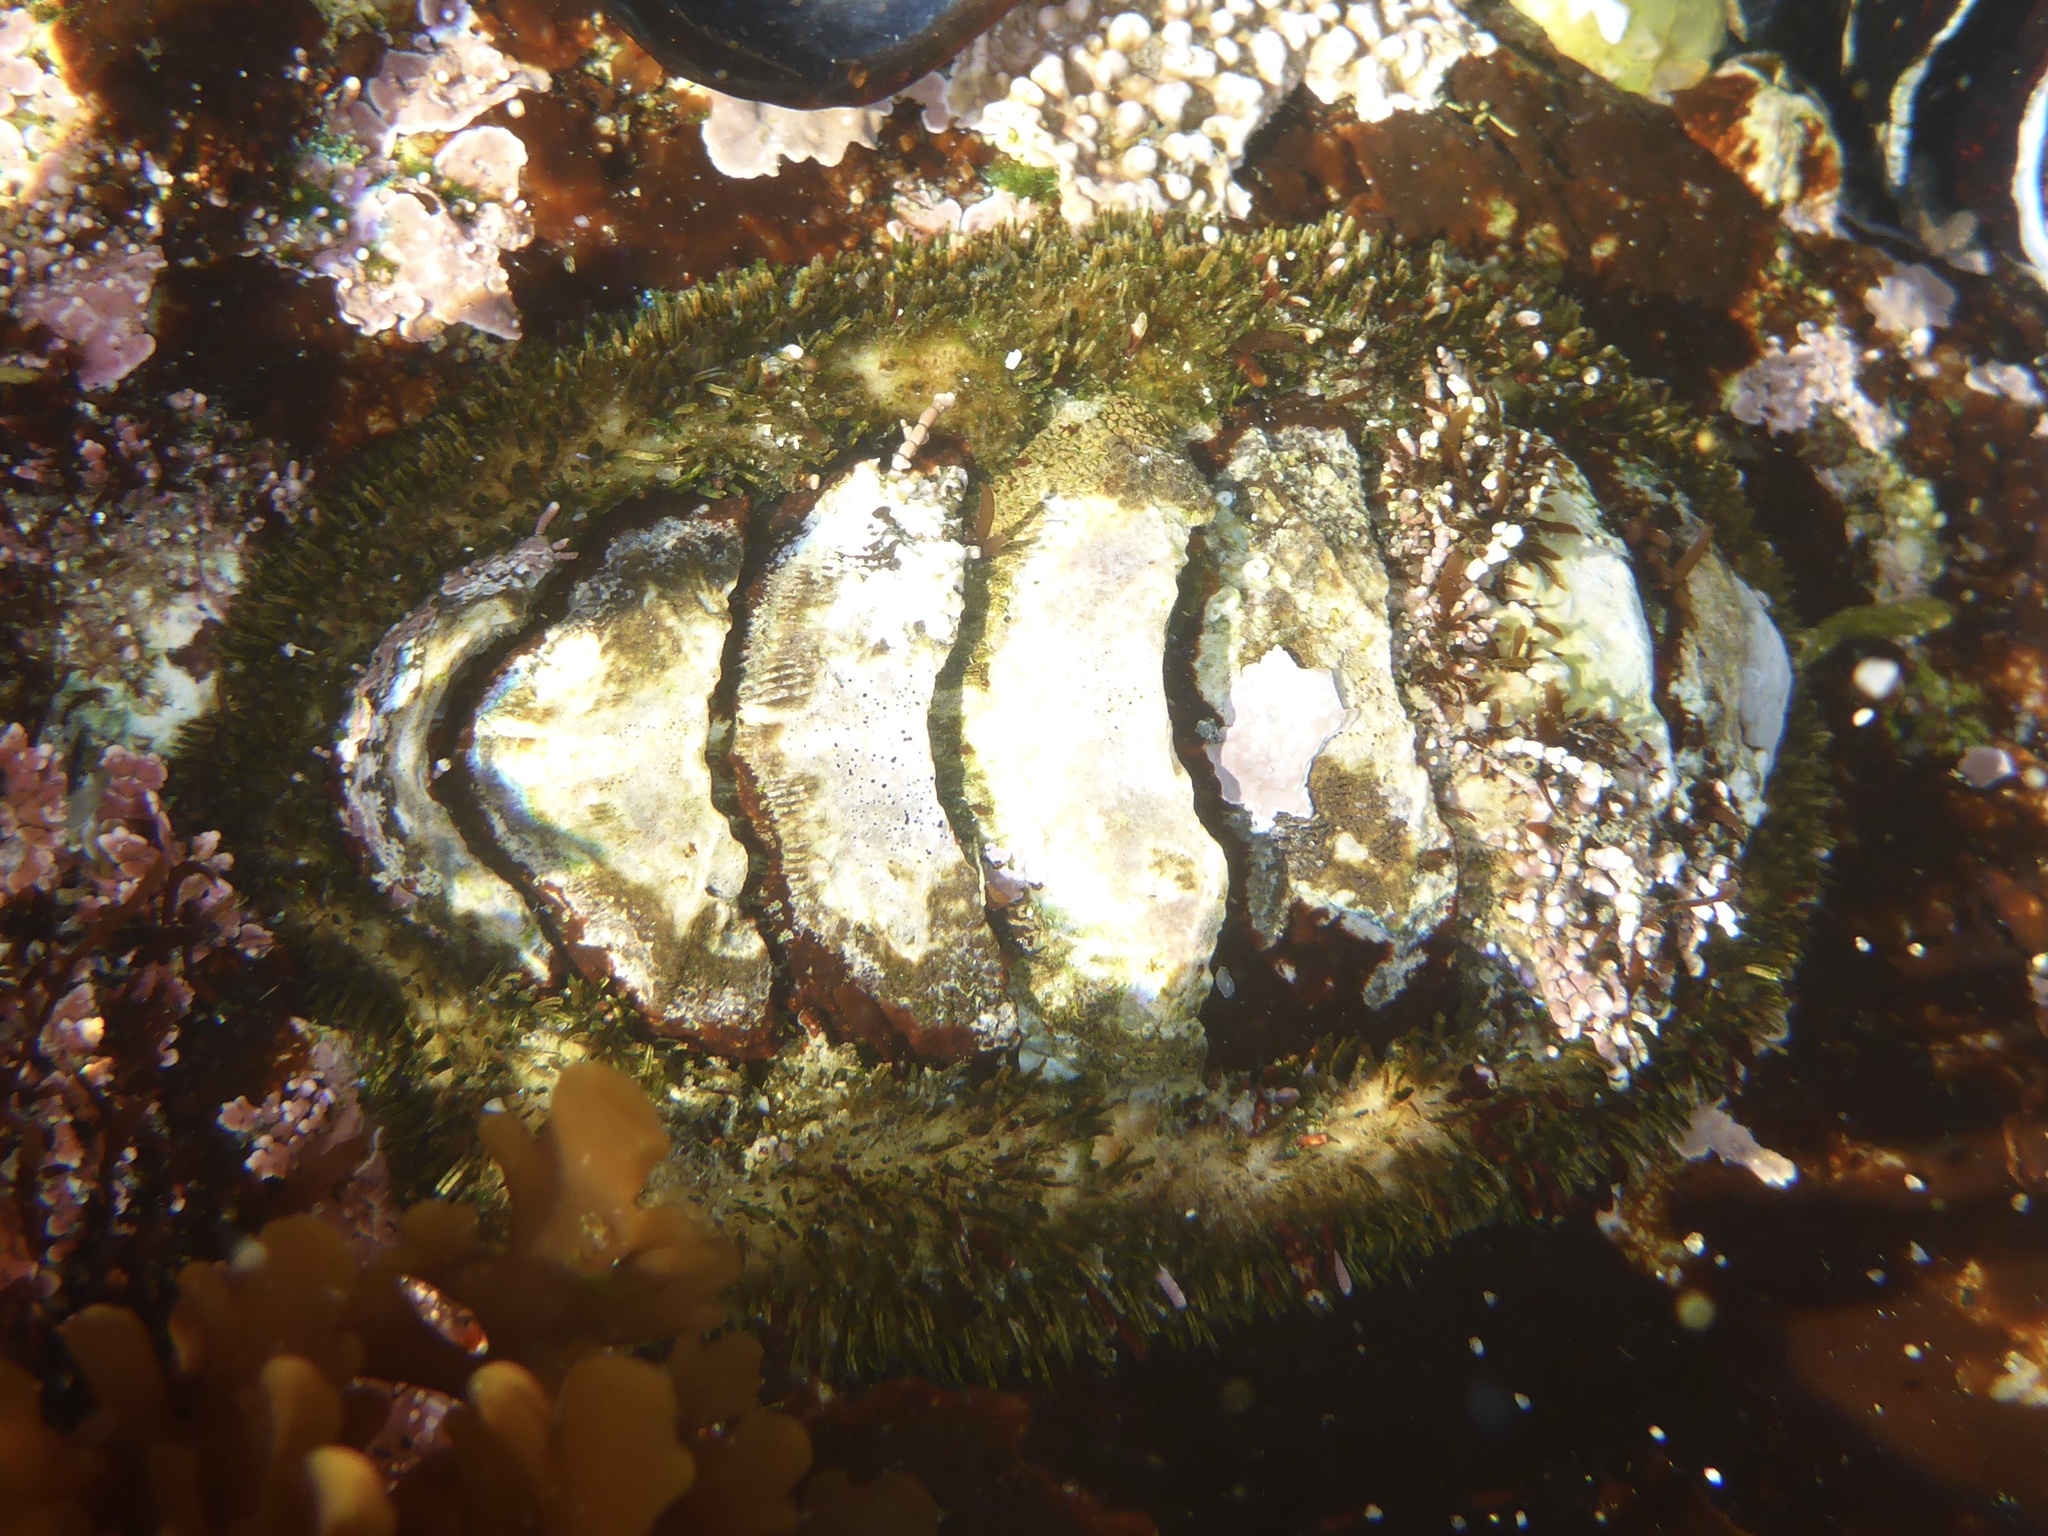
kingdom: Animalia
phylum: Mollusca
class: Polyplacophora
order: Chitonida
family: Mopaliidae
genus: Mopalia
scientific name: Mopalia muscosa
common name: Mossy chiton
